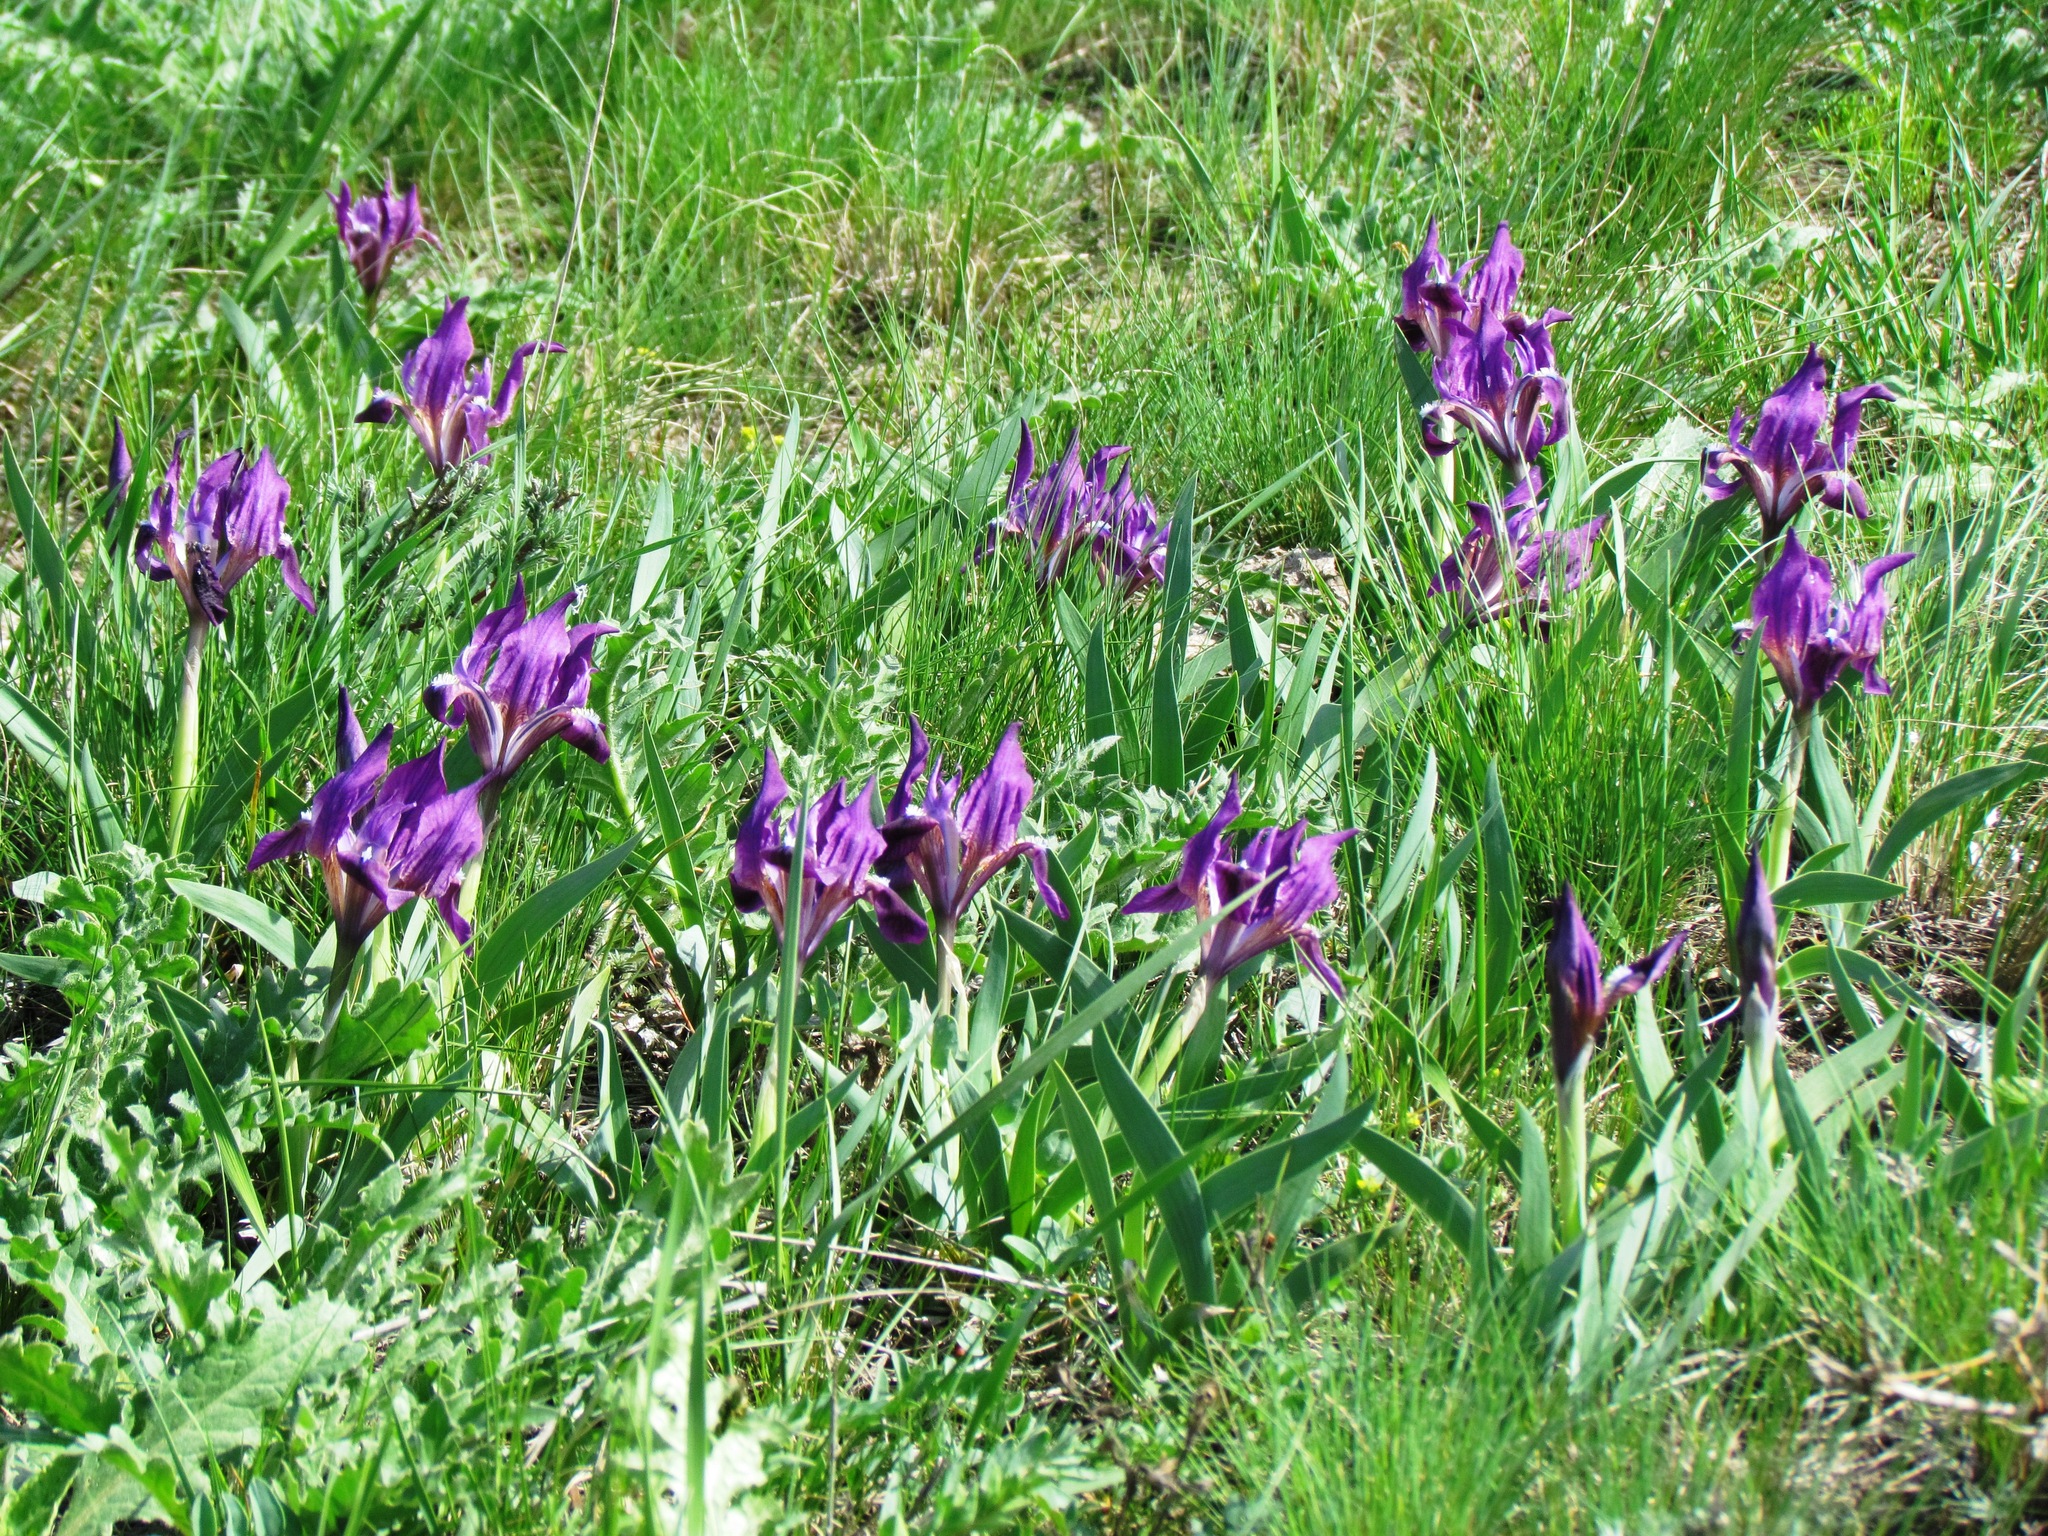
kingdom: Plantae
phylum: Tracheophyta
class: Liliopsida
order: Asparagales
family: Iridaceae
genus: Iris
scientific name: Iris pumila
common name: Dwarf iris
